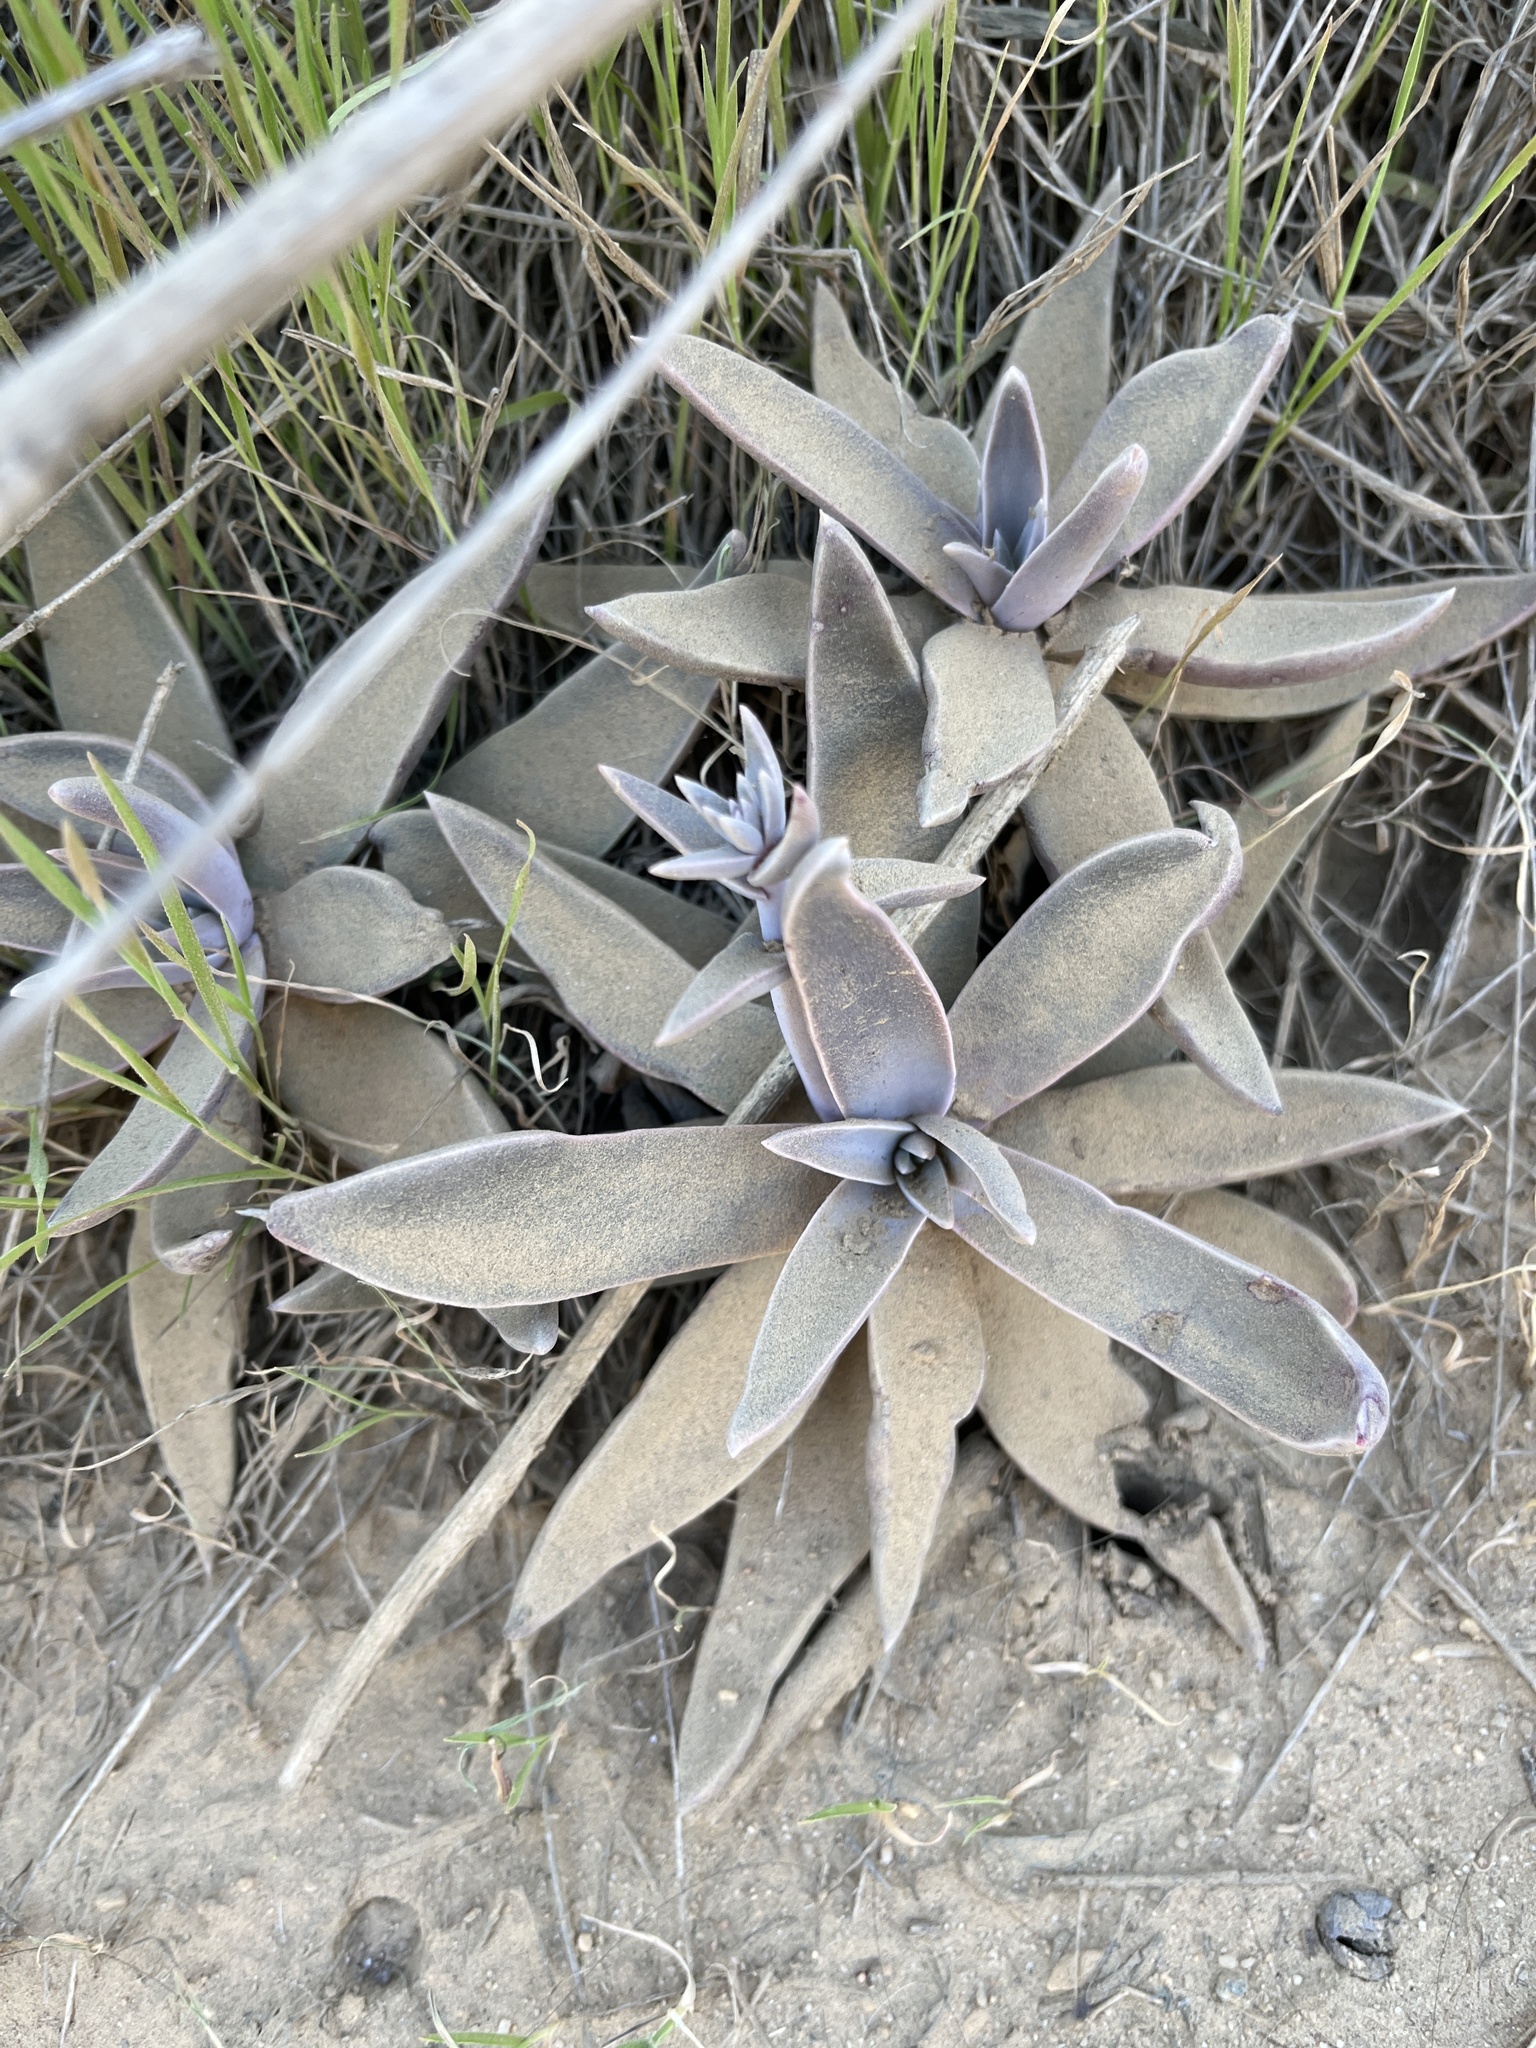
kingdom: Plantae
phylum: Tracheophyta
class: Magnoliopsida
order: Saxifragales
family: Crassulaceae
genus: Dudleya
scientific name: Dudleya lanceolata
